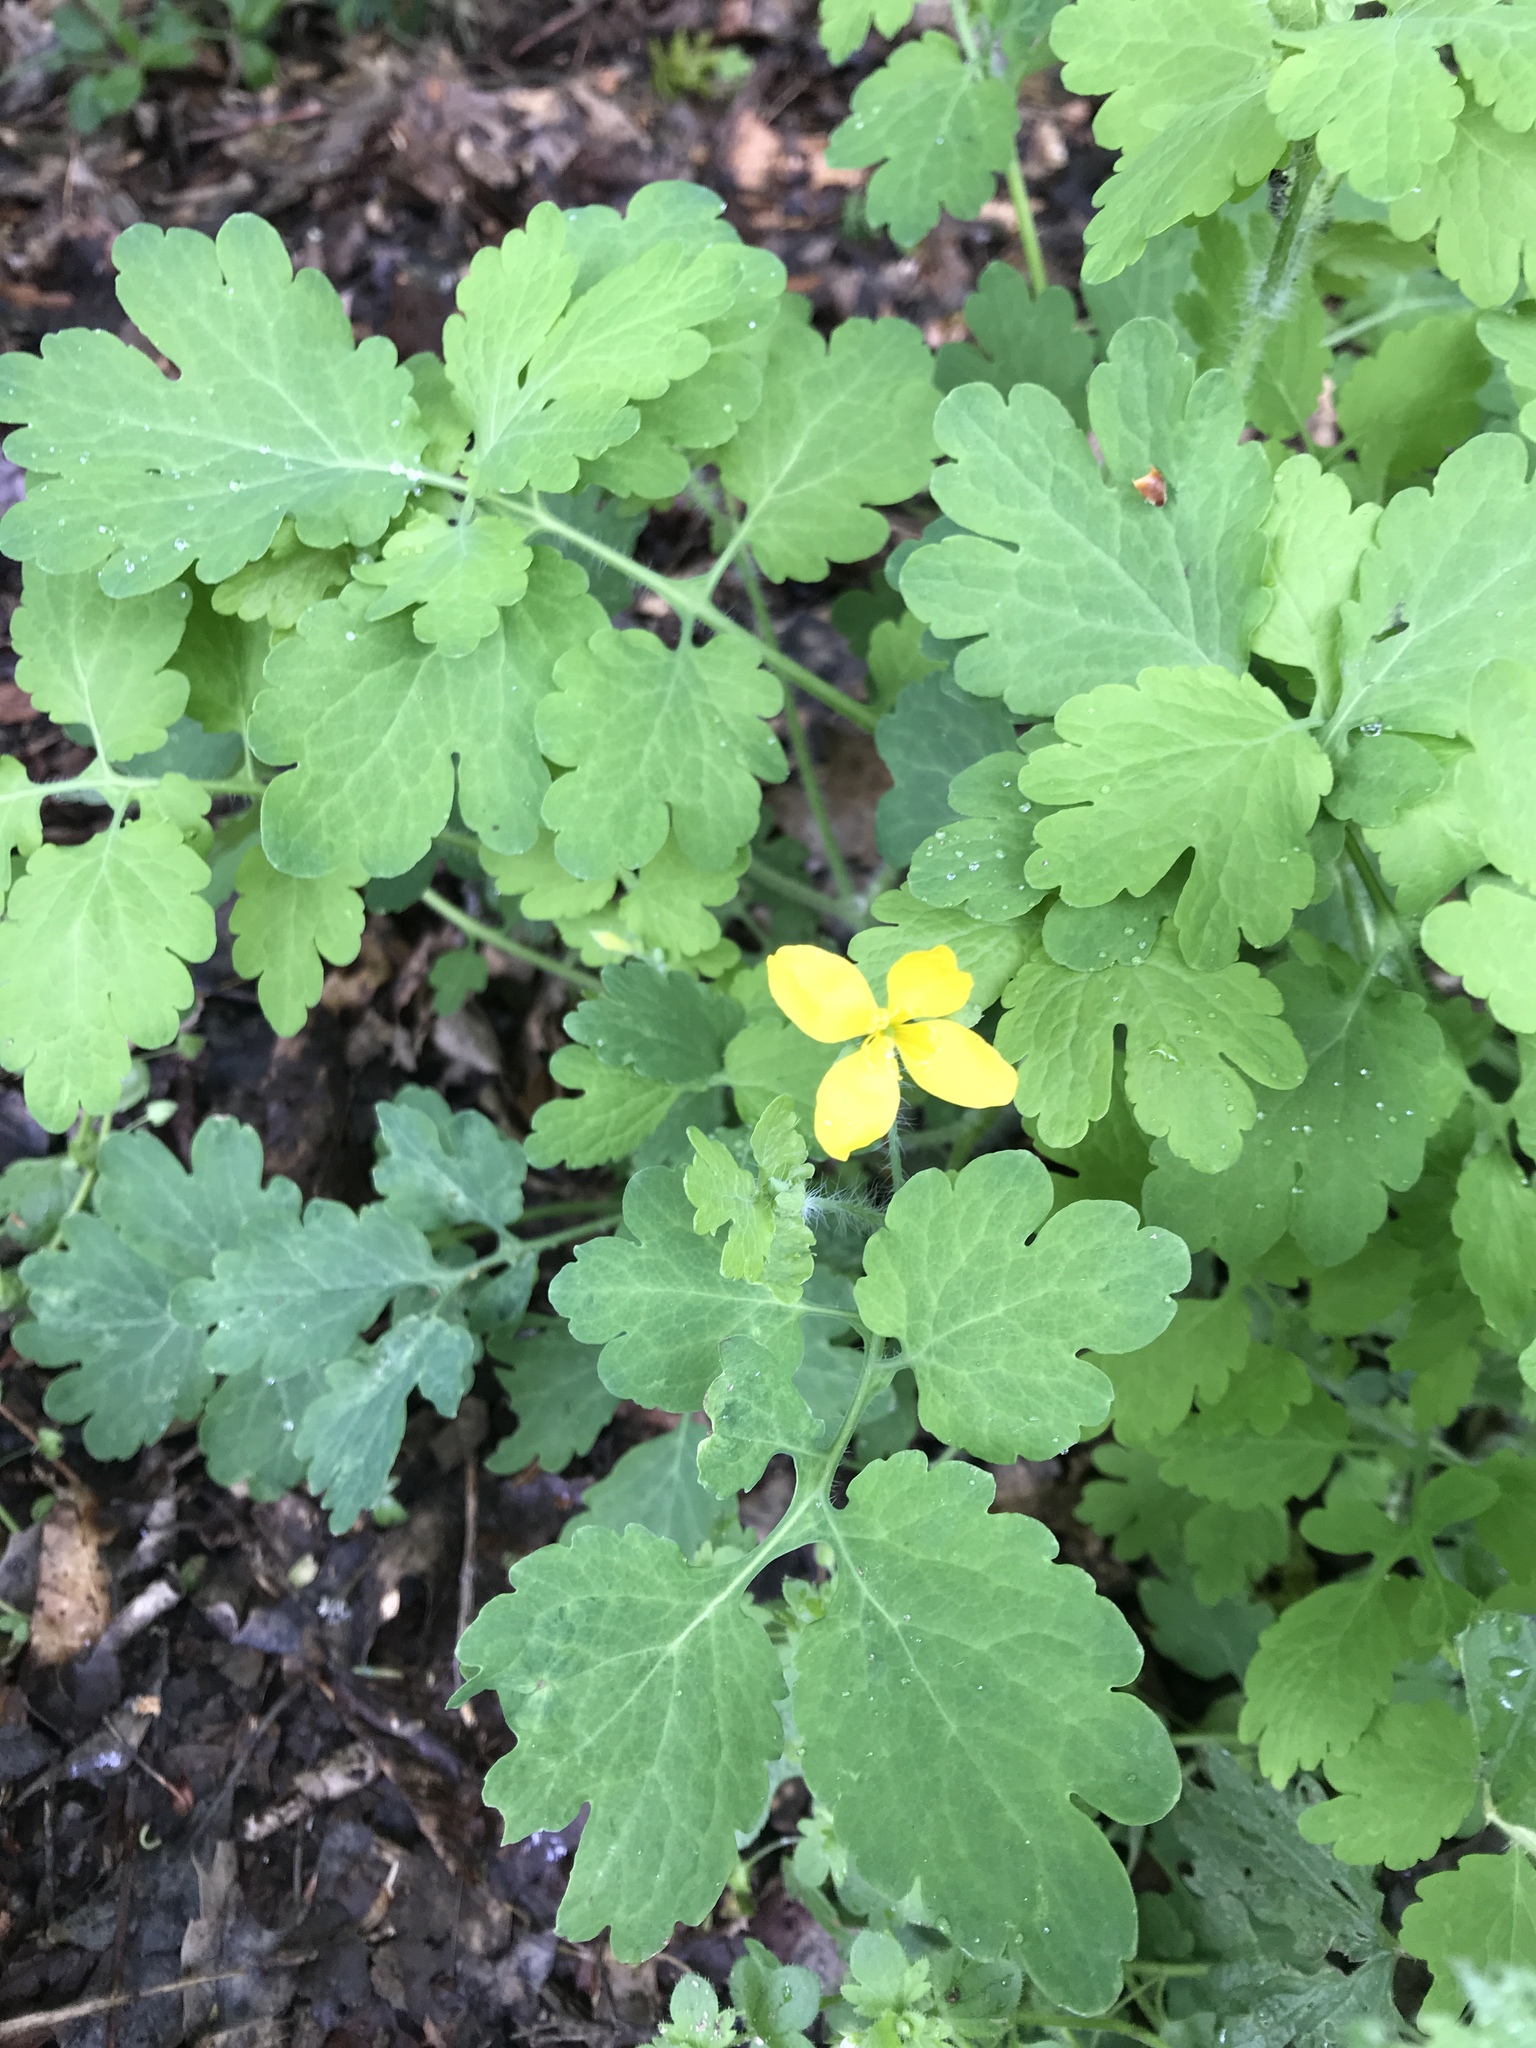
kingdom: Plantae
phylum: Tracheophyta
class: Magnoliopsida
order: Ranunculales
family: Papaveraceae
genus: Chelidonium
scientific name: Chelidonium majus
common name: Greater celandine
